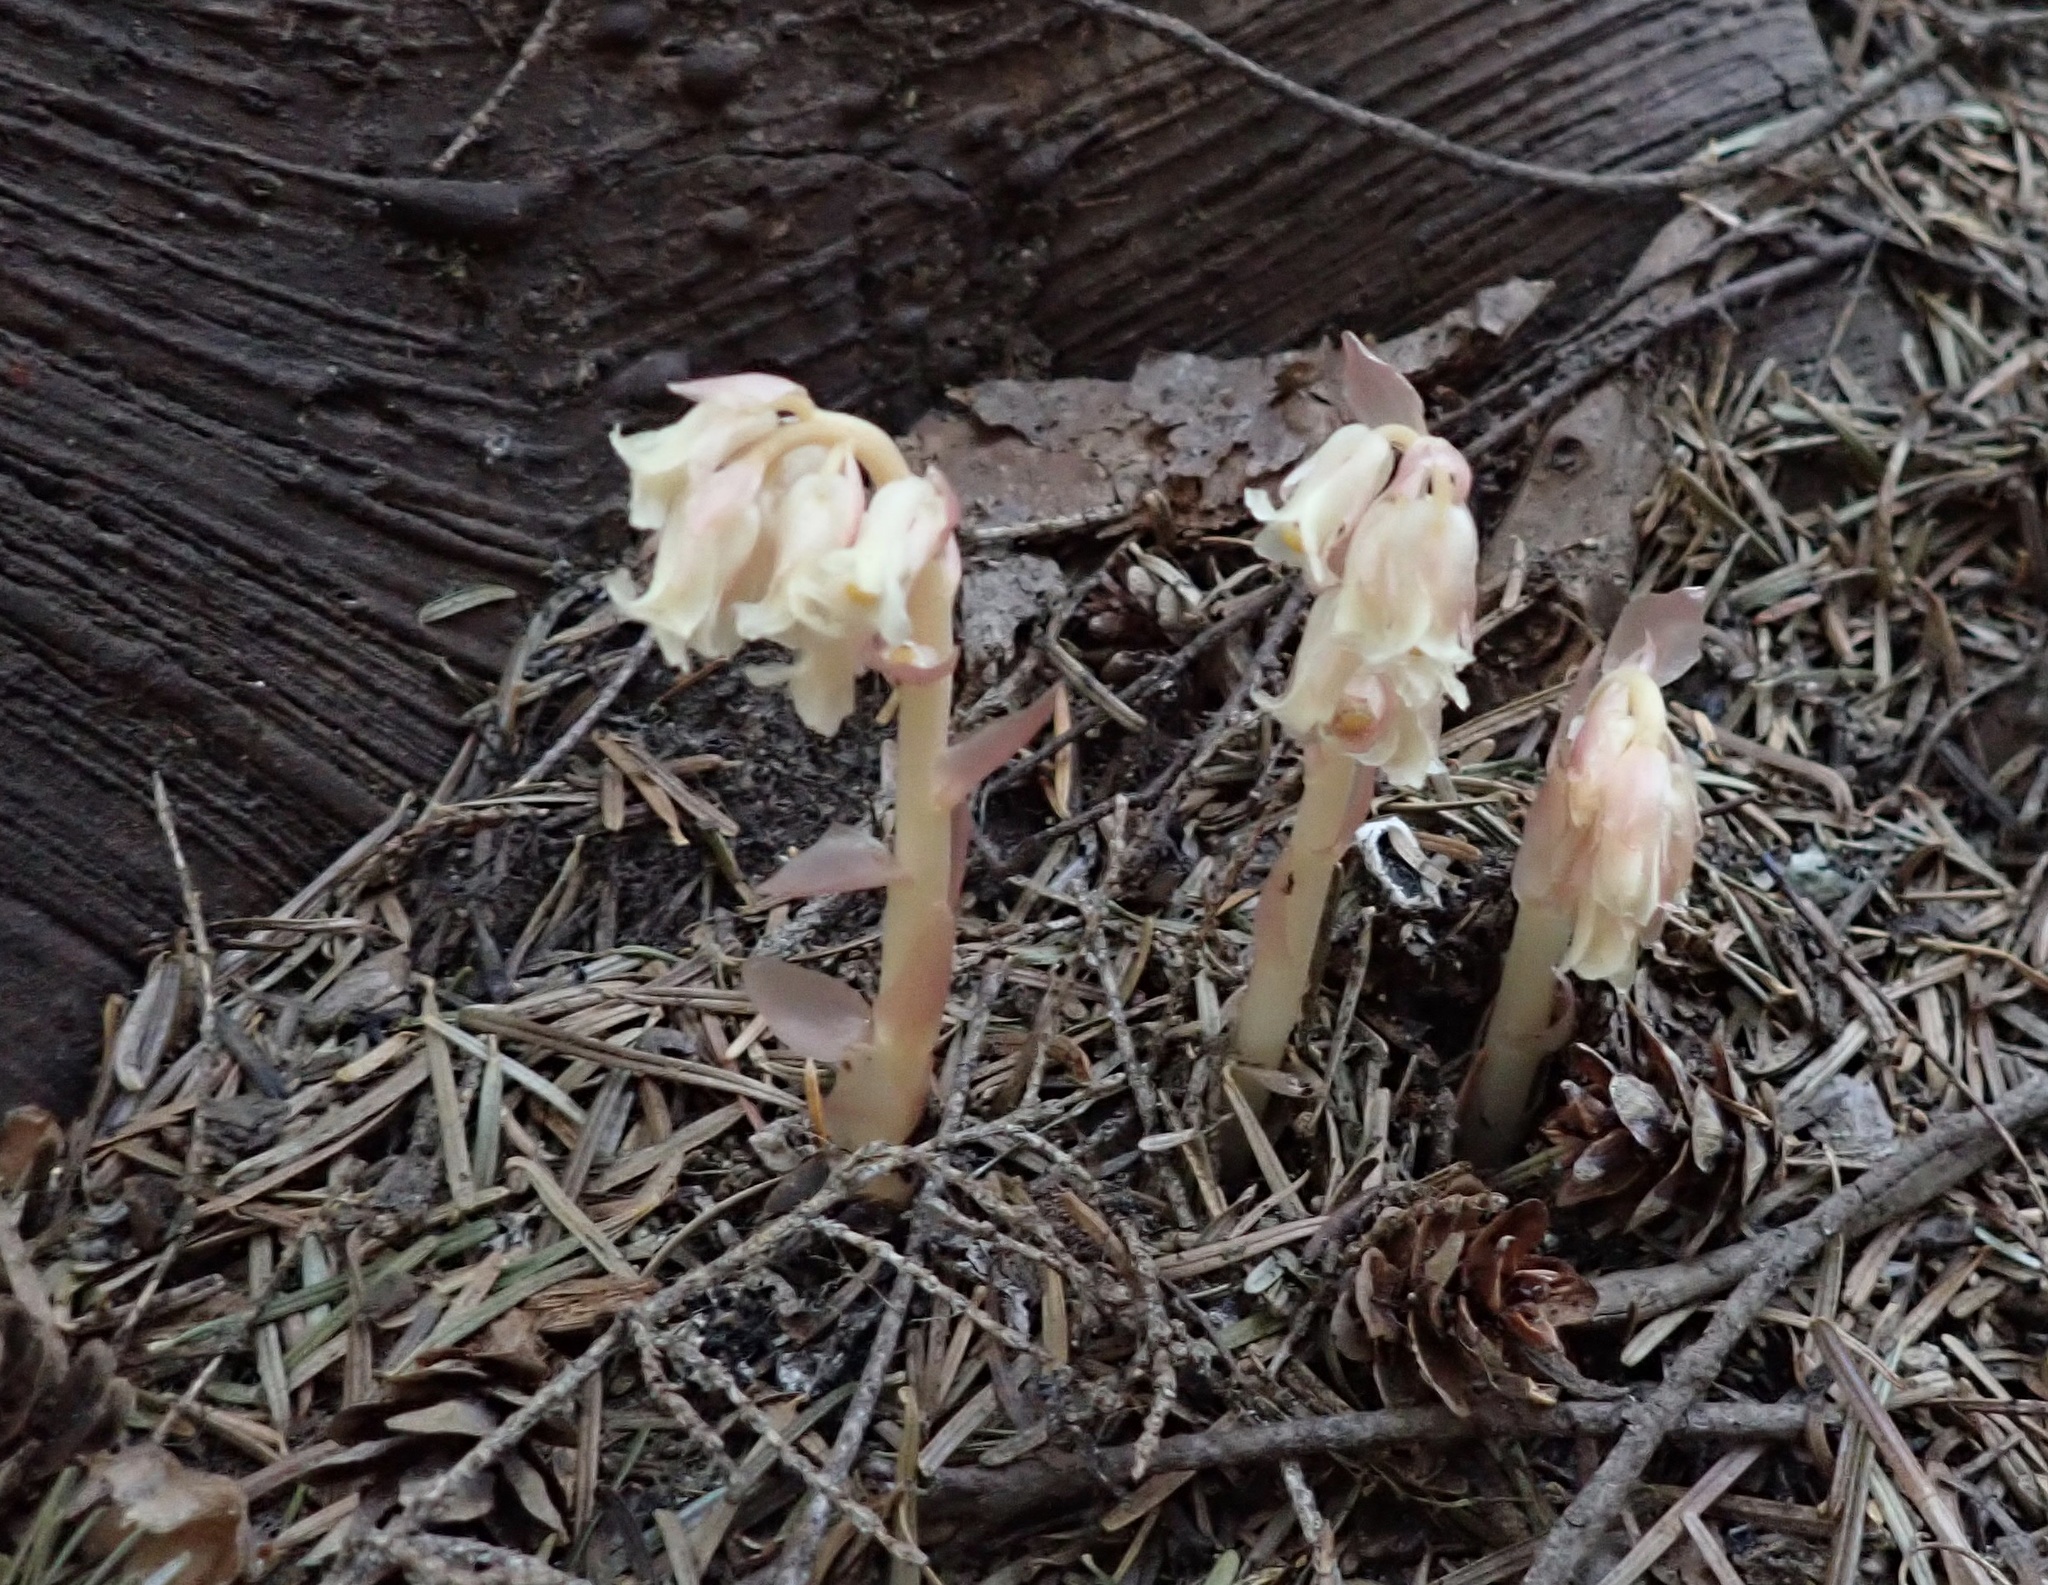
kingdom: Plantae
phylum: Tracheophyta
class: Magnoliopsida
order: Ericales
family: Ericaceae
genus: Hypopitys
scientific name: Hypopitys monotropa
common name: Yellow bird's-nest
